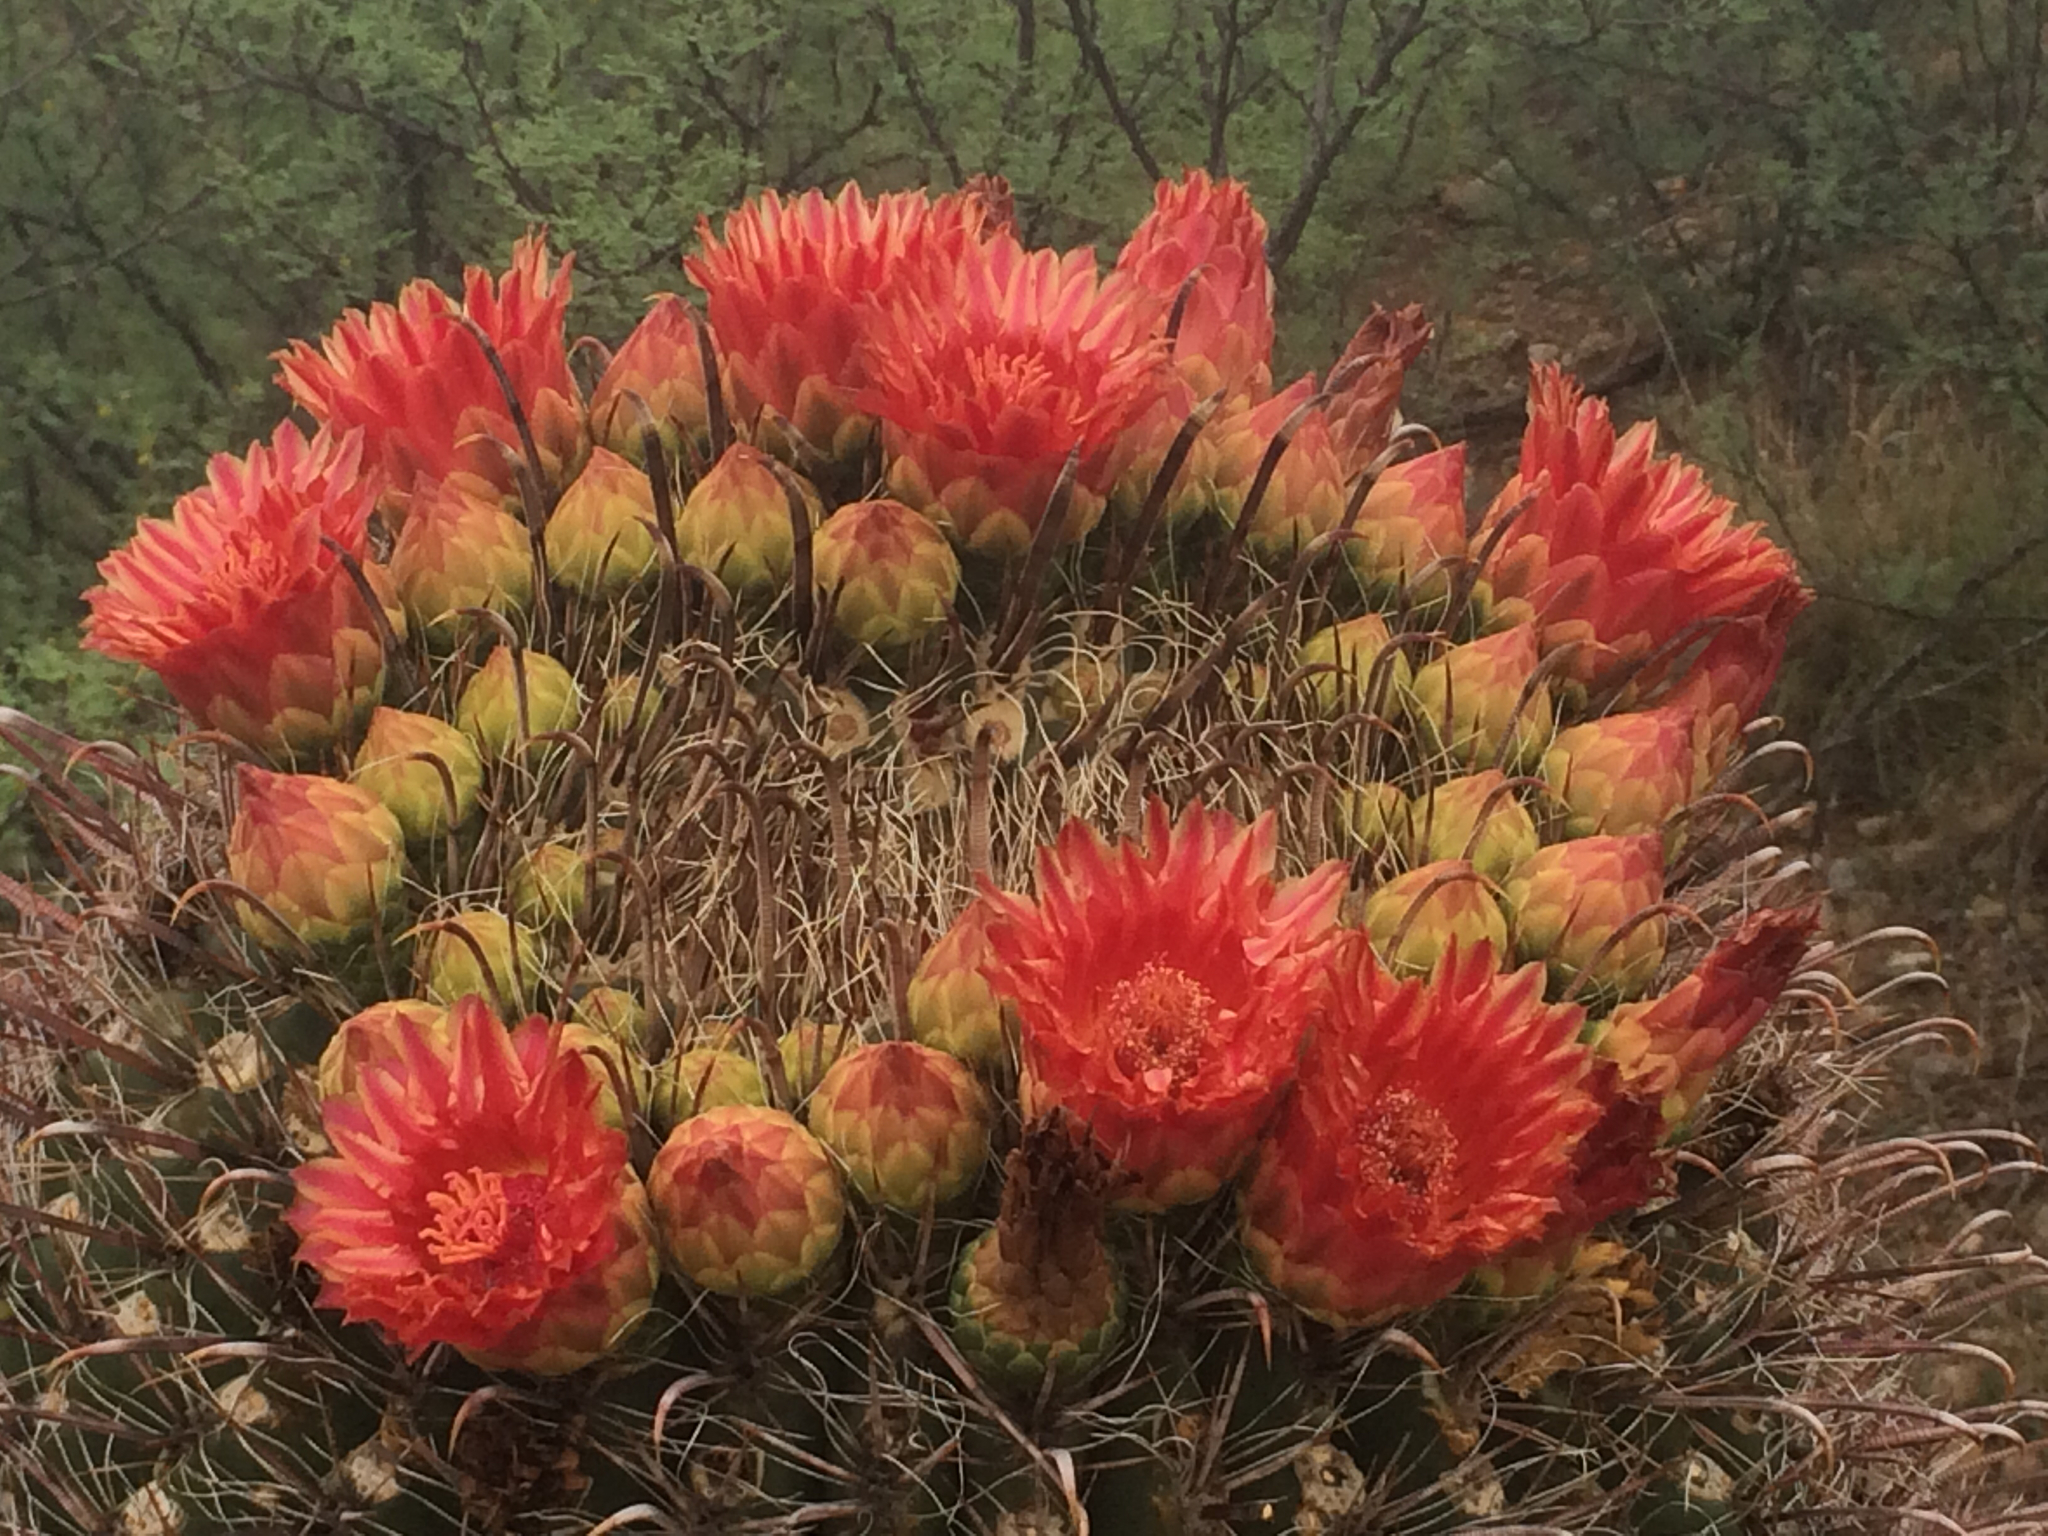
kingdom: Plantae
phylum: Tracheophyta
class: Magnoliopsida
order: Caryophyllales
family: Cactaceae
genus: Ferocactus
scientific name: Ferocactus wislizeni
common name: Candy barrel cactus
